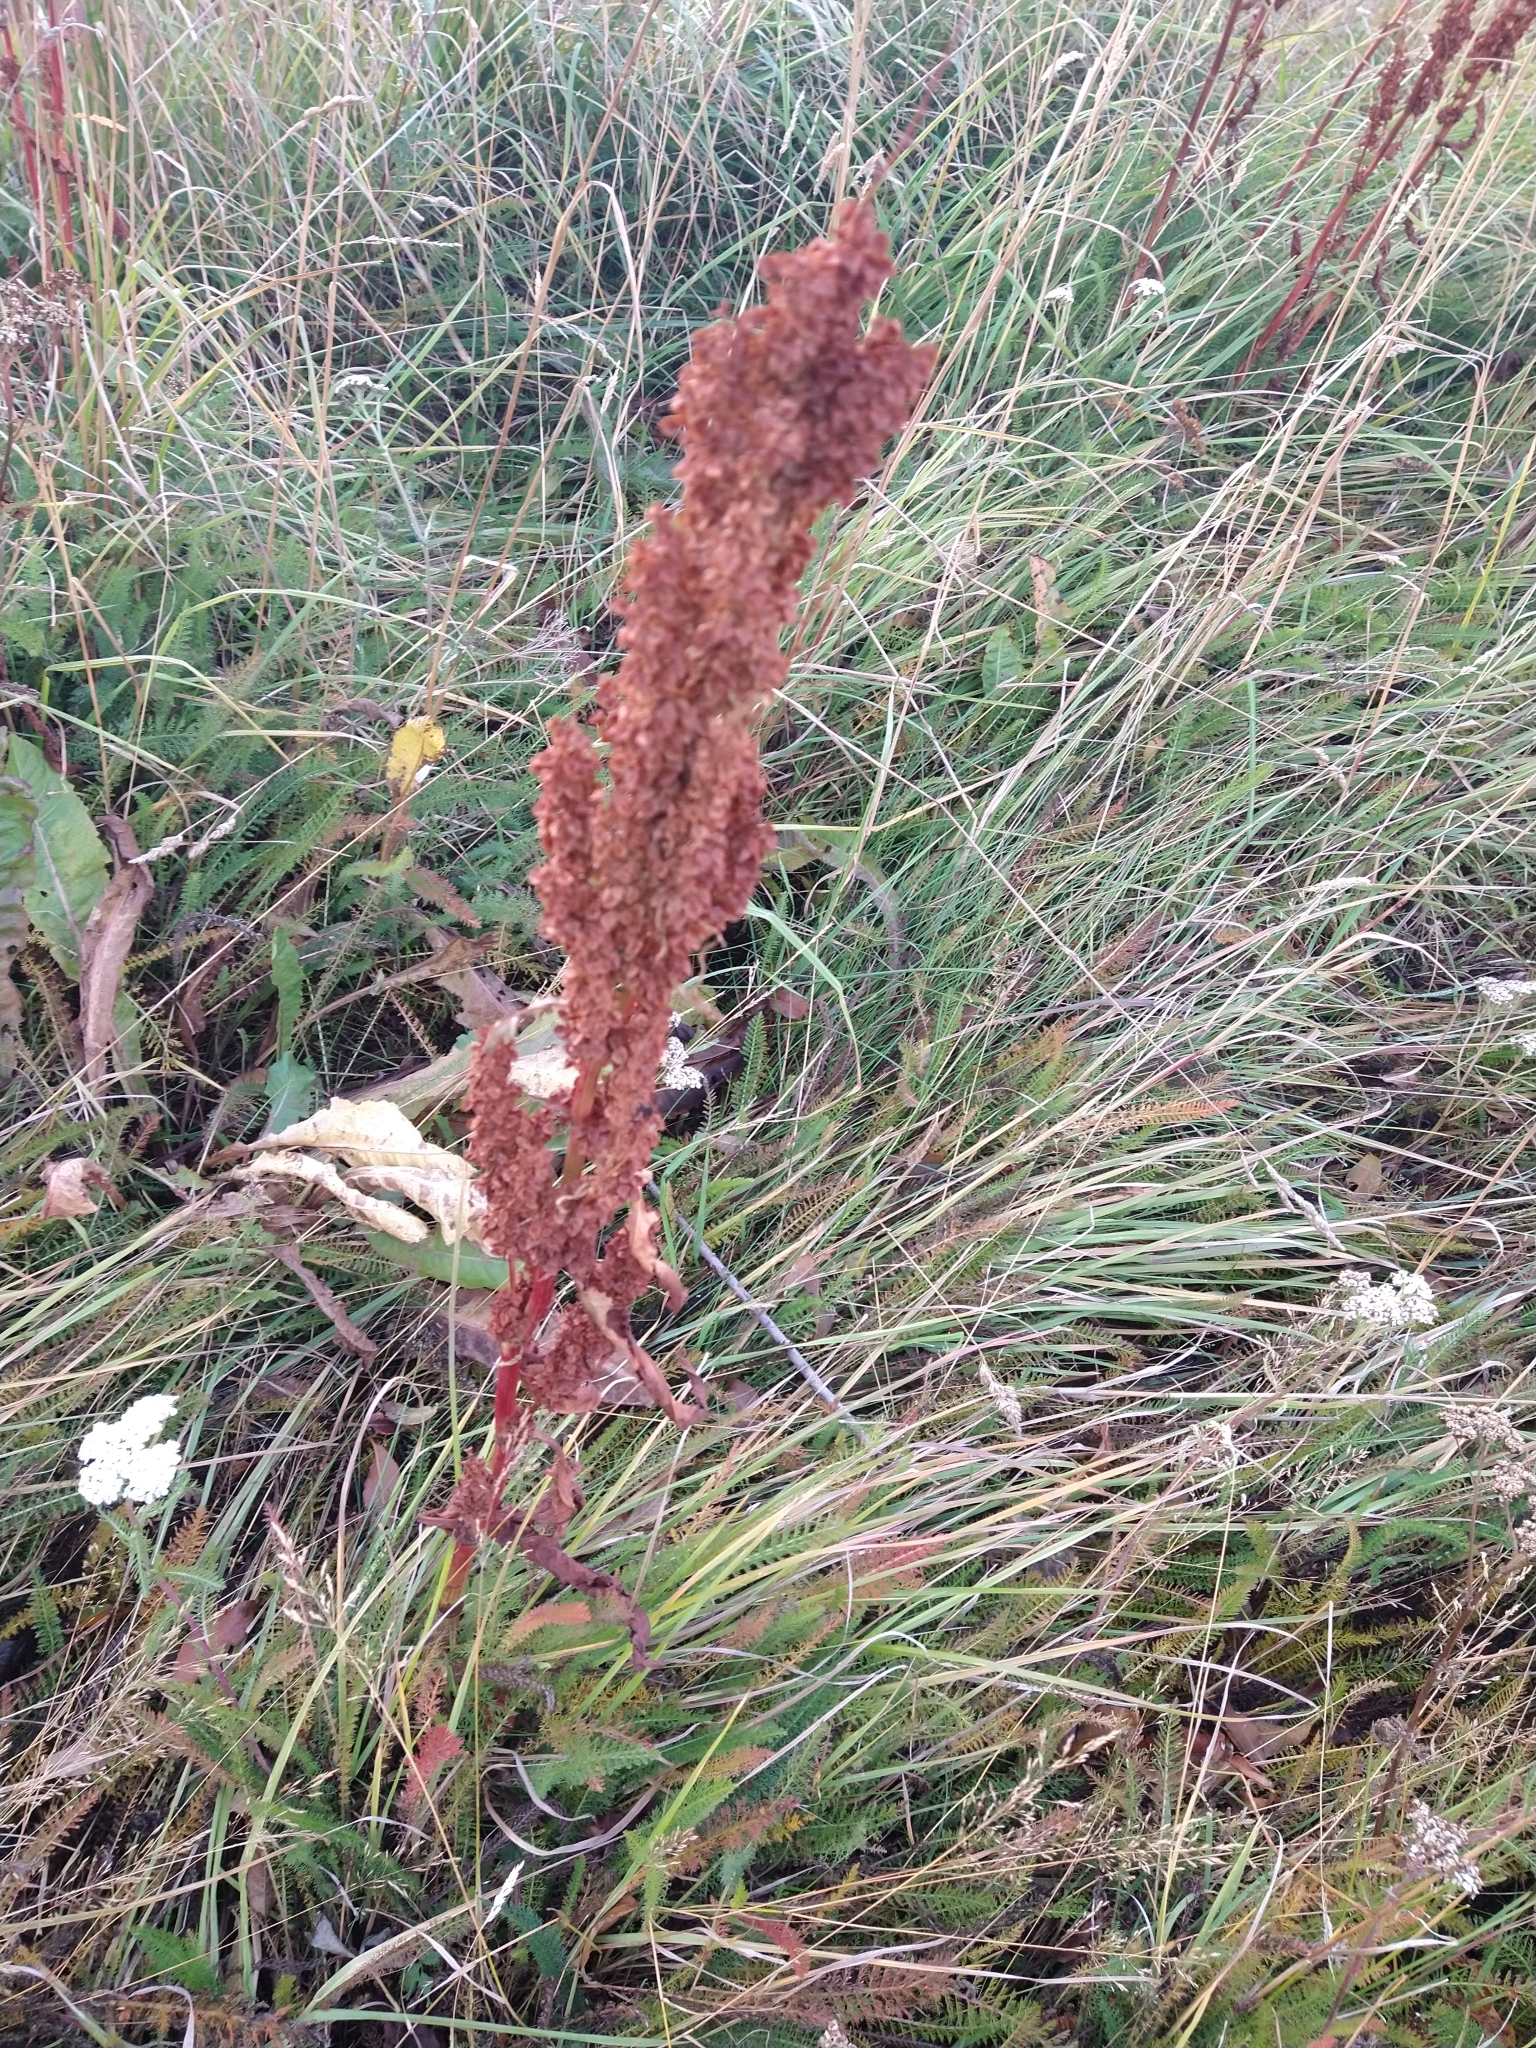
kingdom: Plantae
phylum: Tracheophyta
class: Magnoliopsida
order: Caryophyllales
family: Polygonaceae
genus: Rumex
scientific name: Rumex crispus
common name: Curled dock
